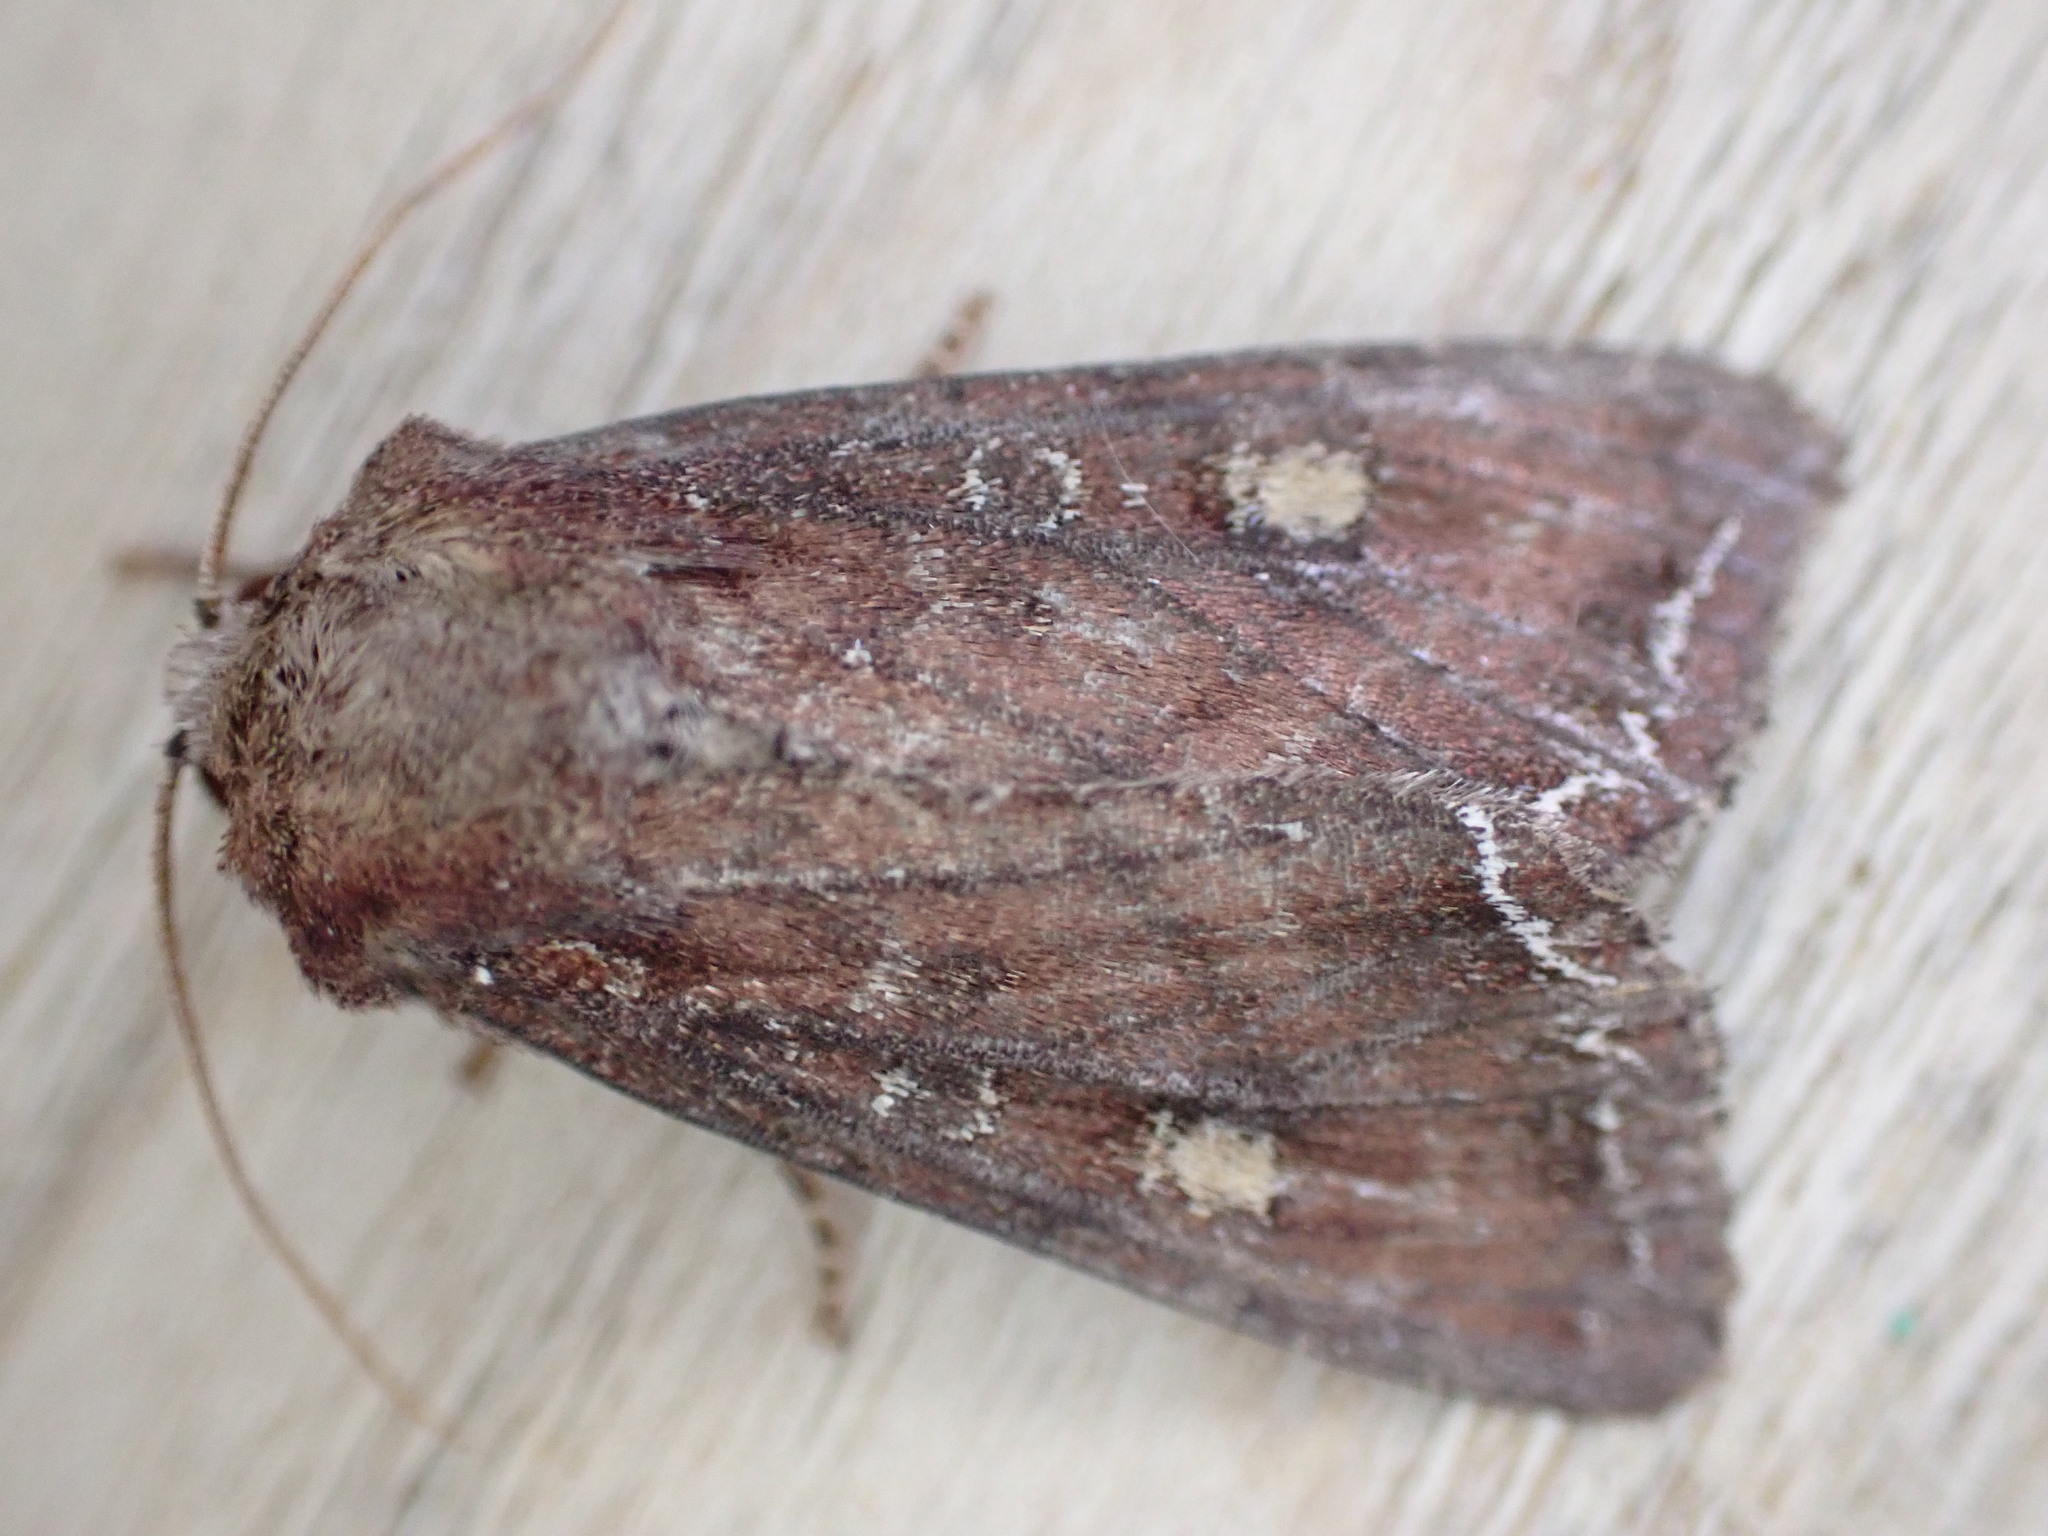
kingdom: Animalia
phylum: Arthropoda
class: Insecta
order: Lepidoptera
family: Noctuidae
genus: Lacanobia
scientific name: Lacanobia oleracea
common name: Bright-line brown-eye
